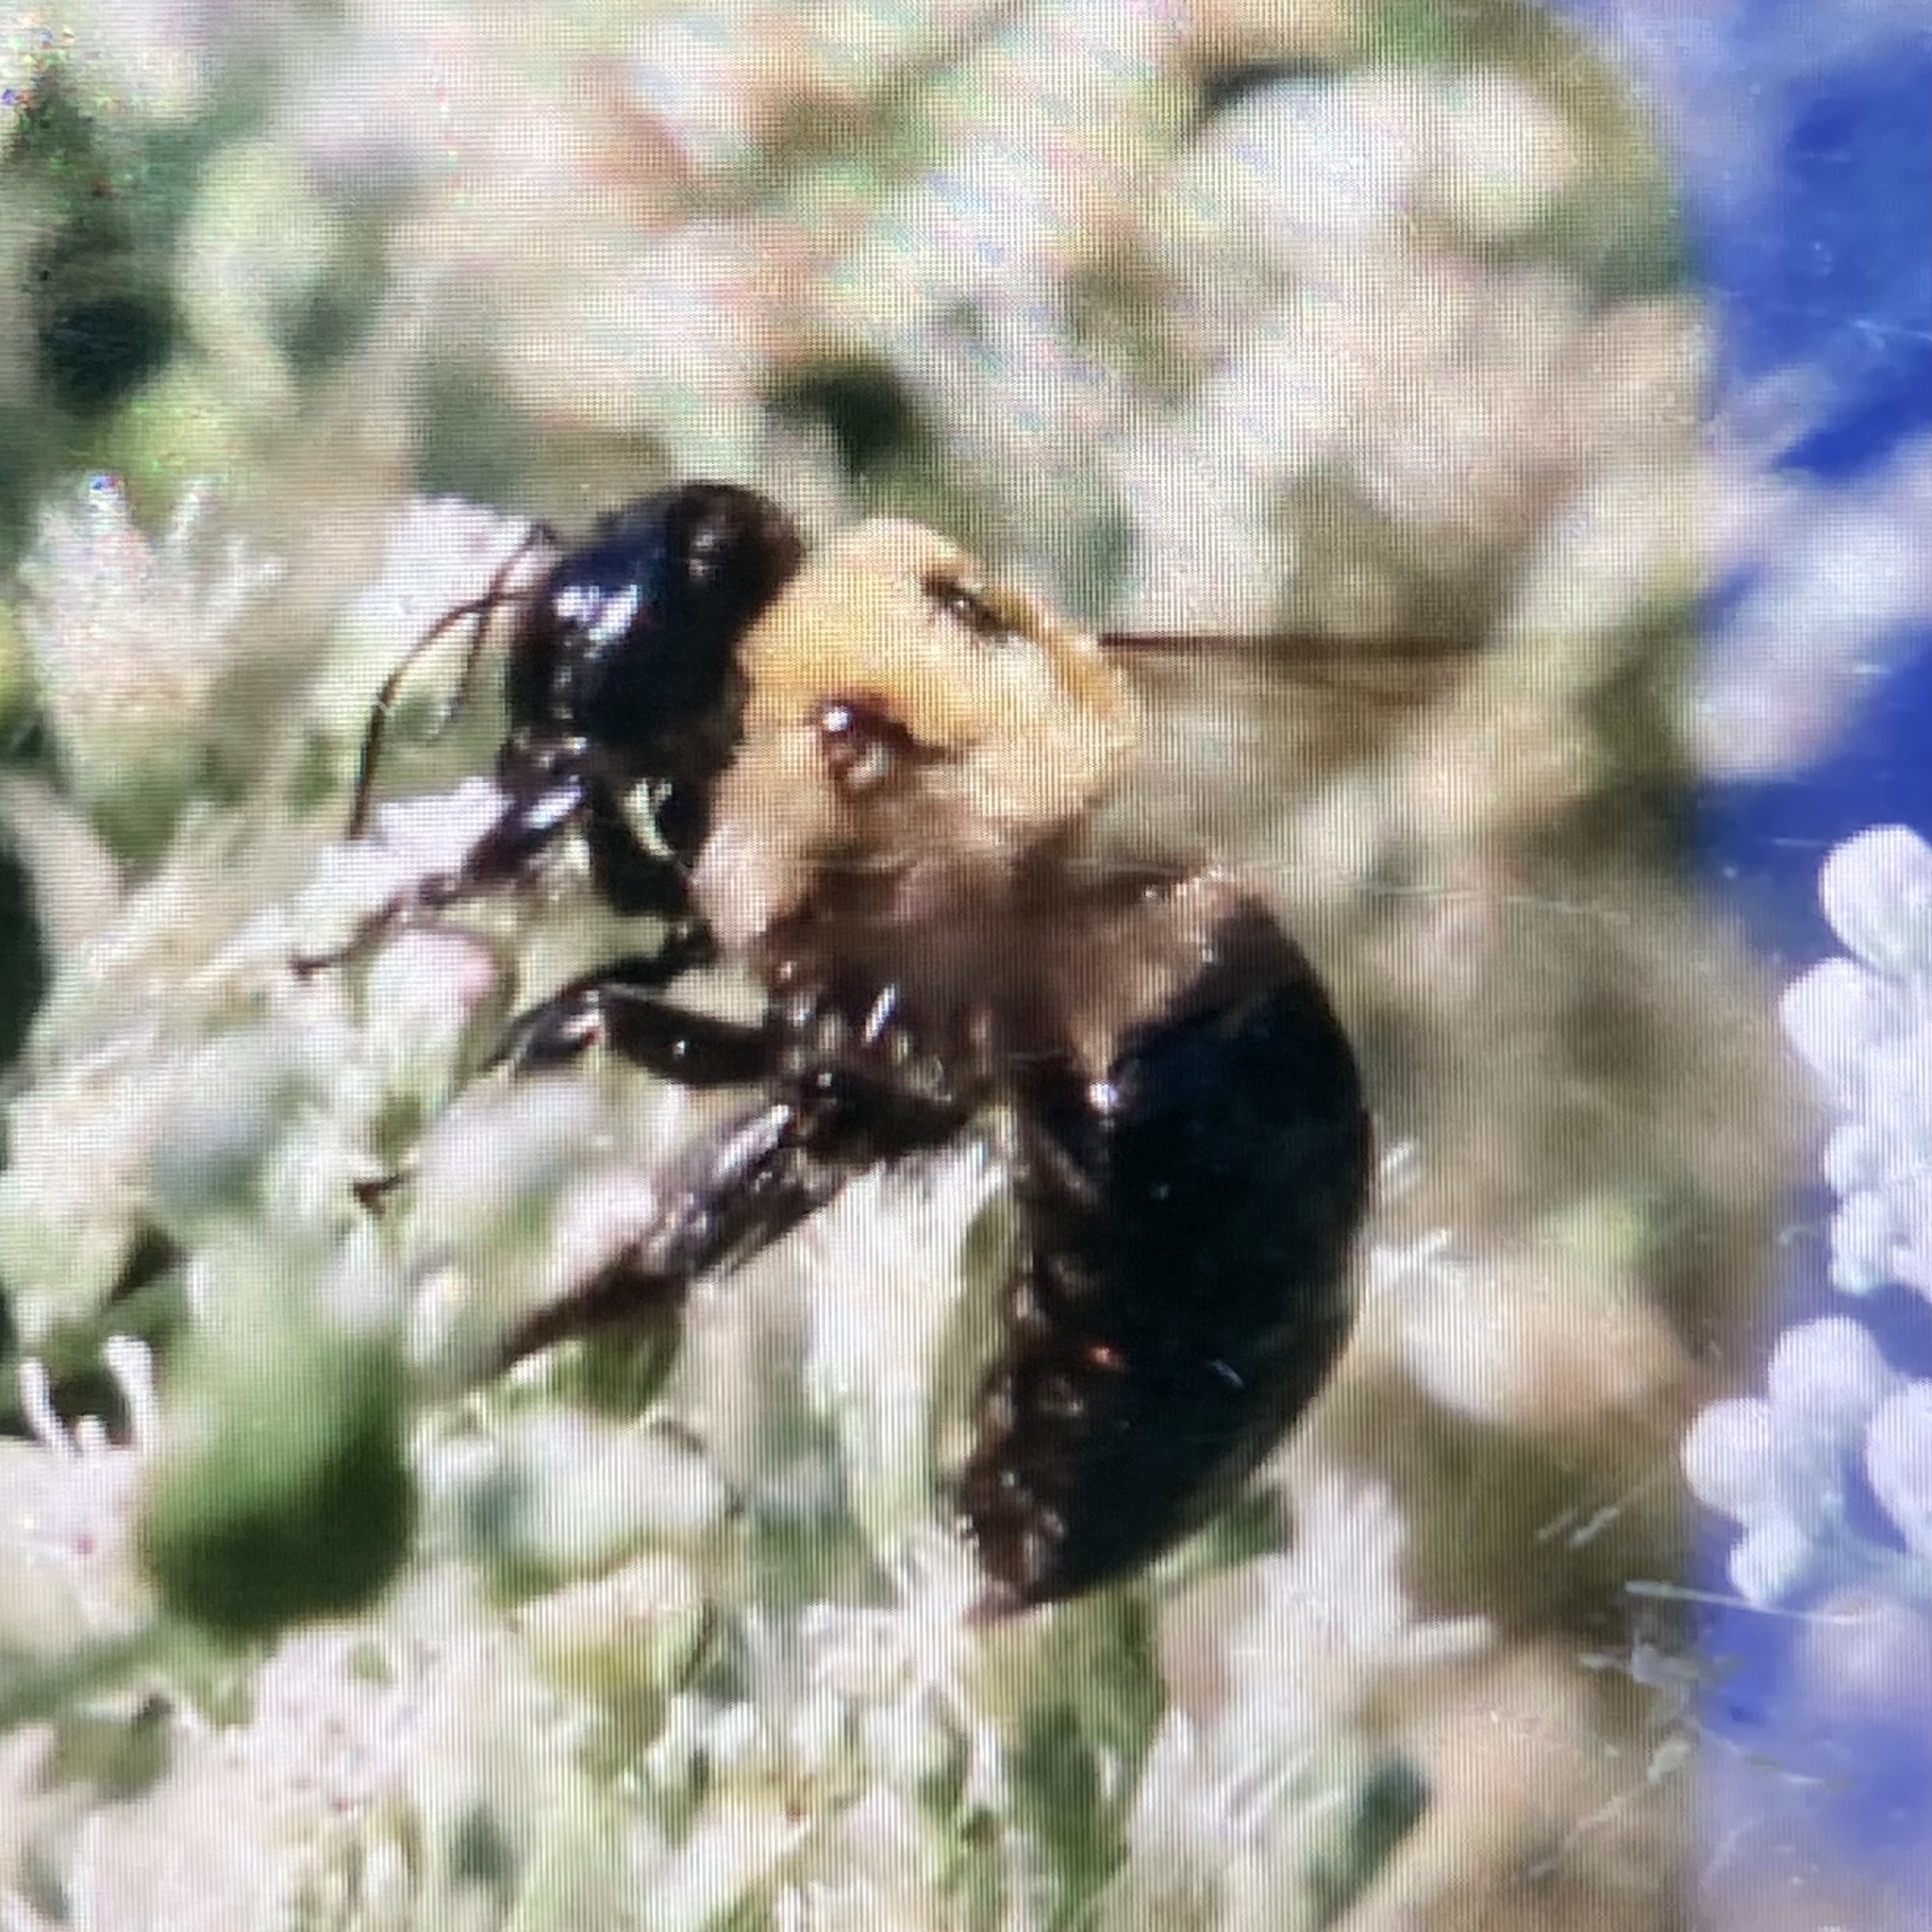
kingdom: Animalia
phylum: Arthropoda
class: Insecta
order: Hymenoptera
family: Apidae
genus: Xylocopa
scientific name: Xylocopa virginica
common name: Carpenter bee
